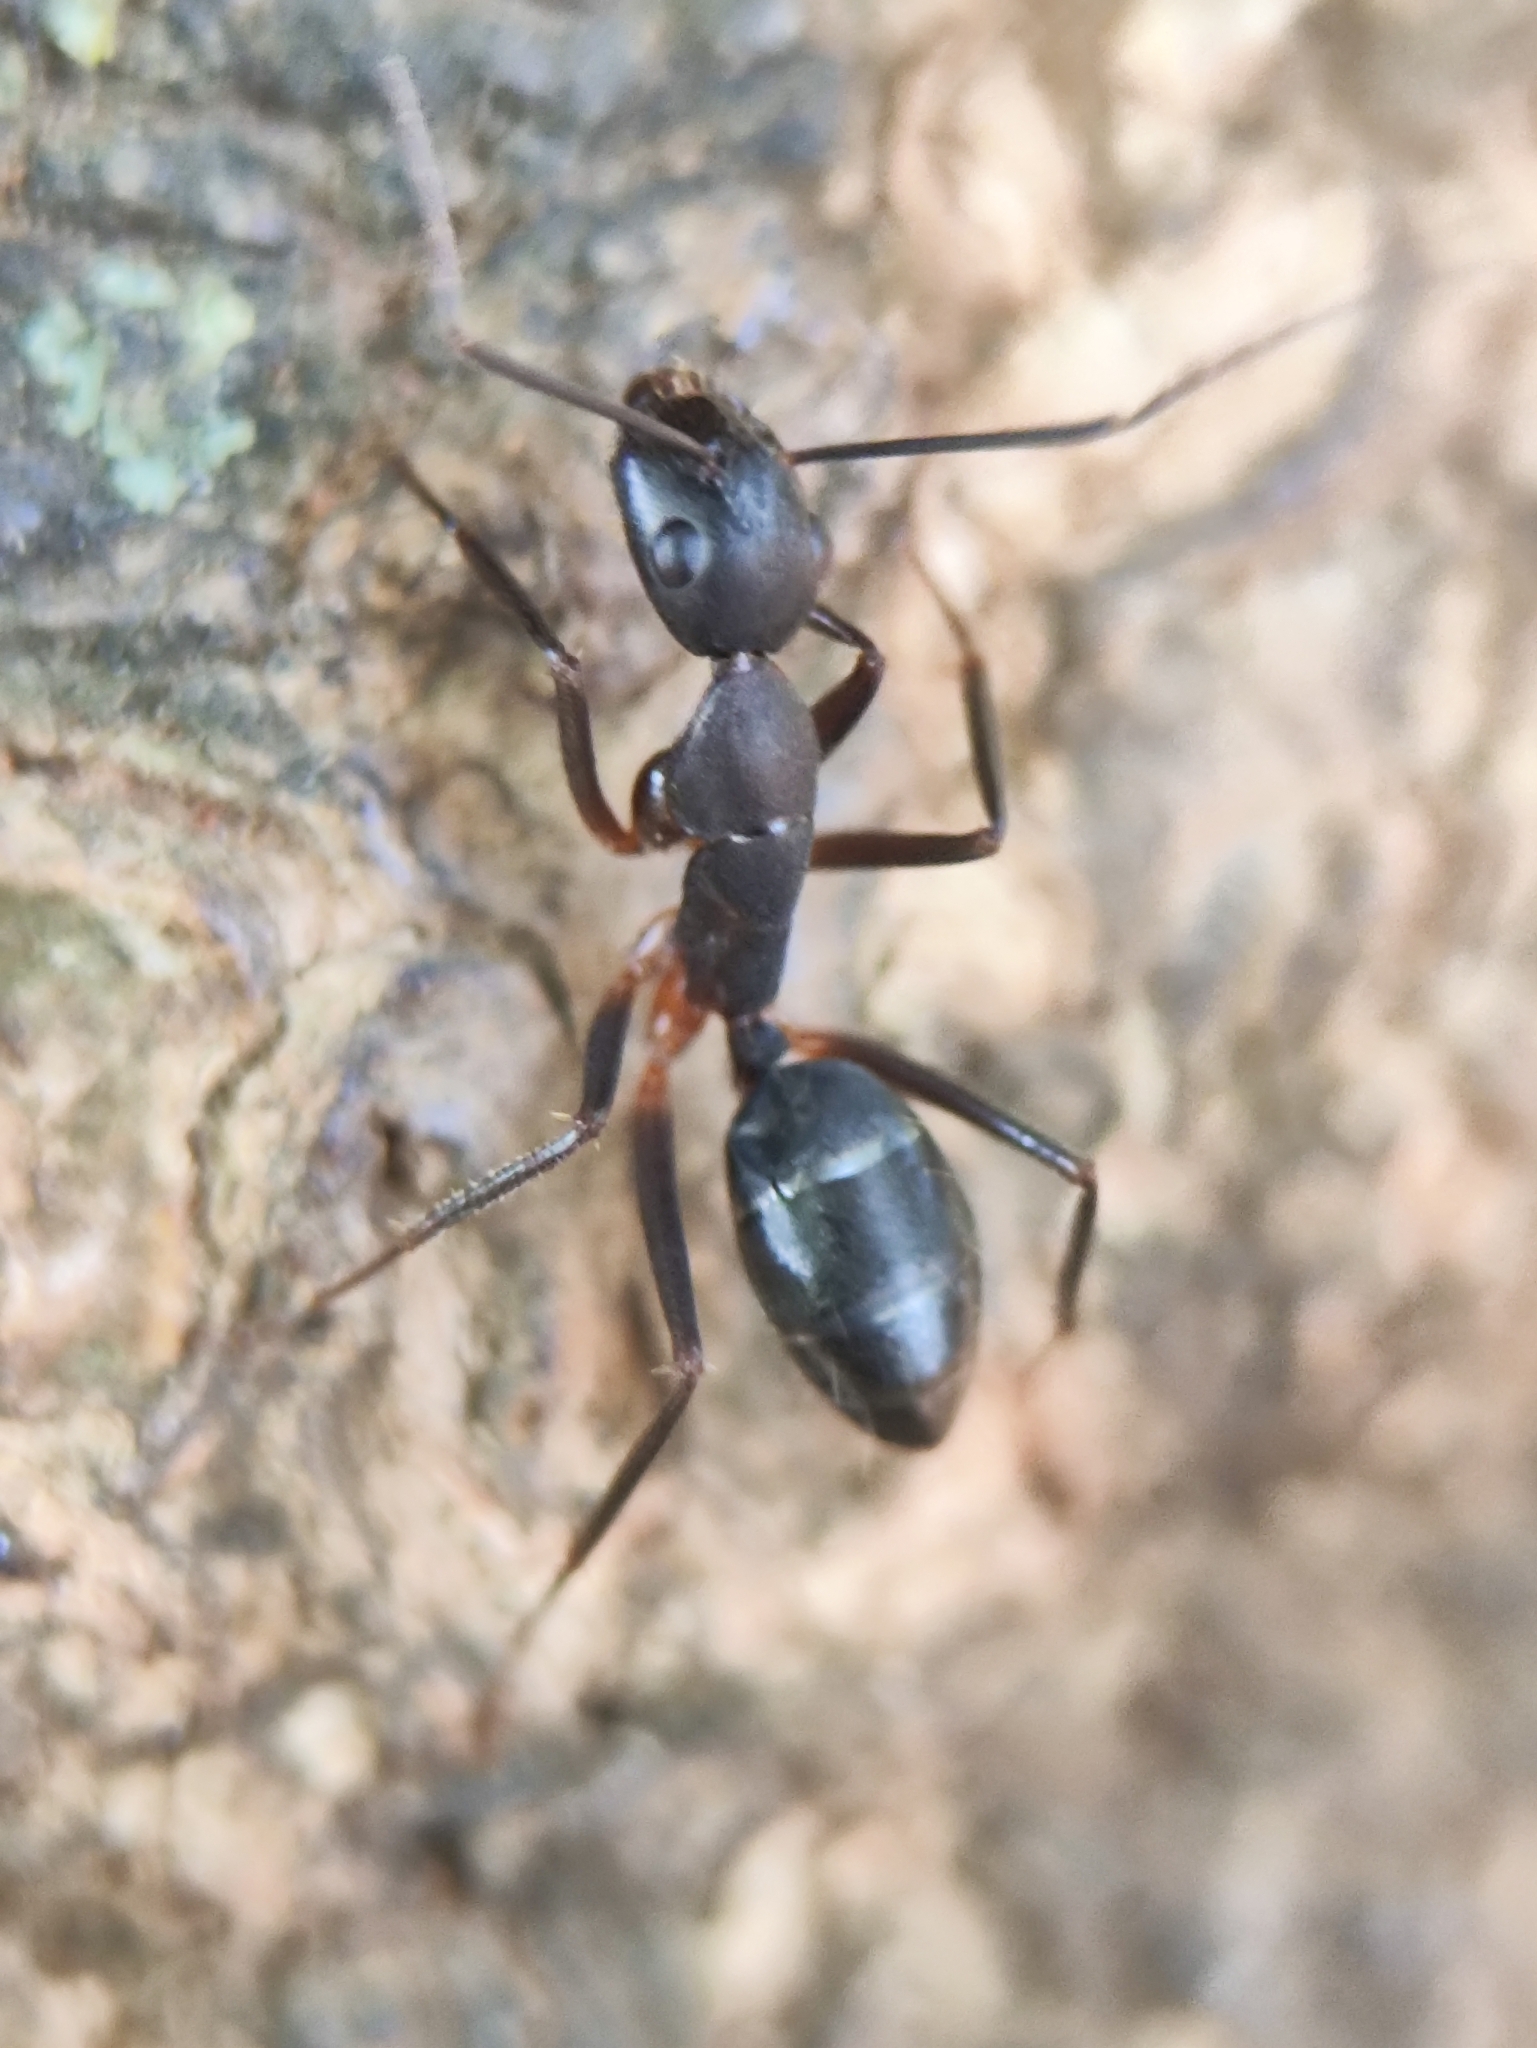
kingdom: Animalia
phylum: Arthropoda
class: Insecta
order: Hymenoptera
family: Formicidae
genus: Camponotus
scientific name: Camponotus compressus
